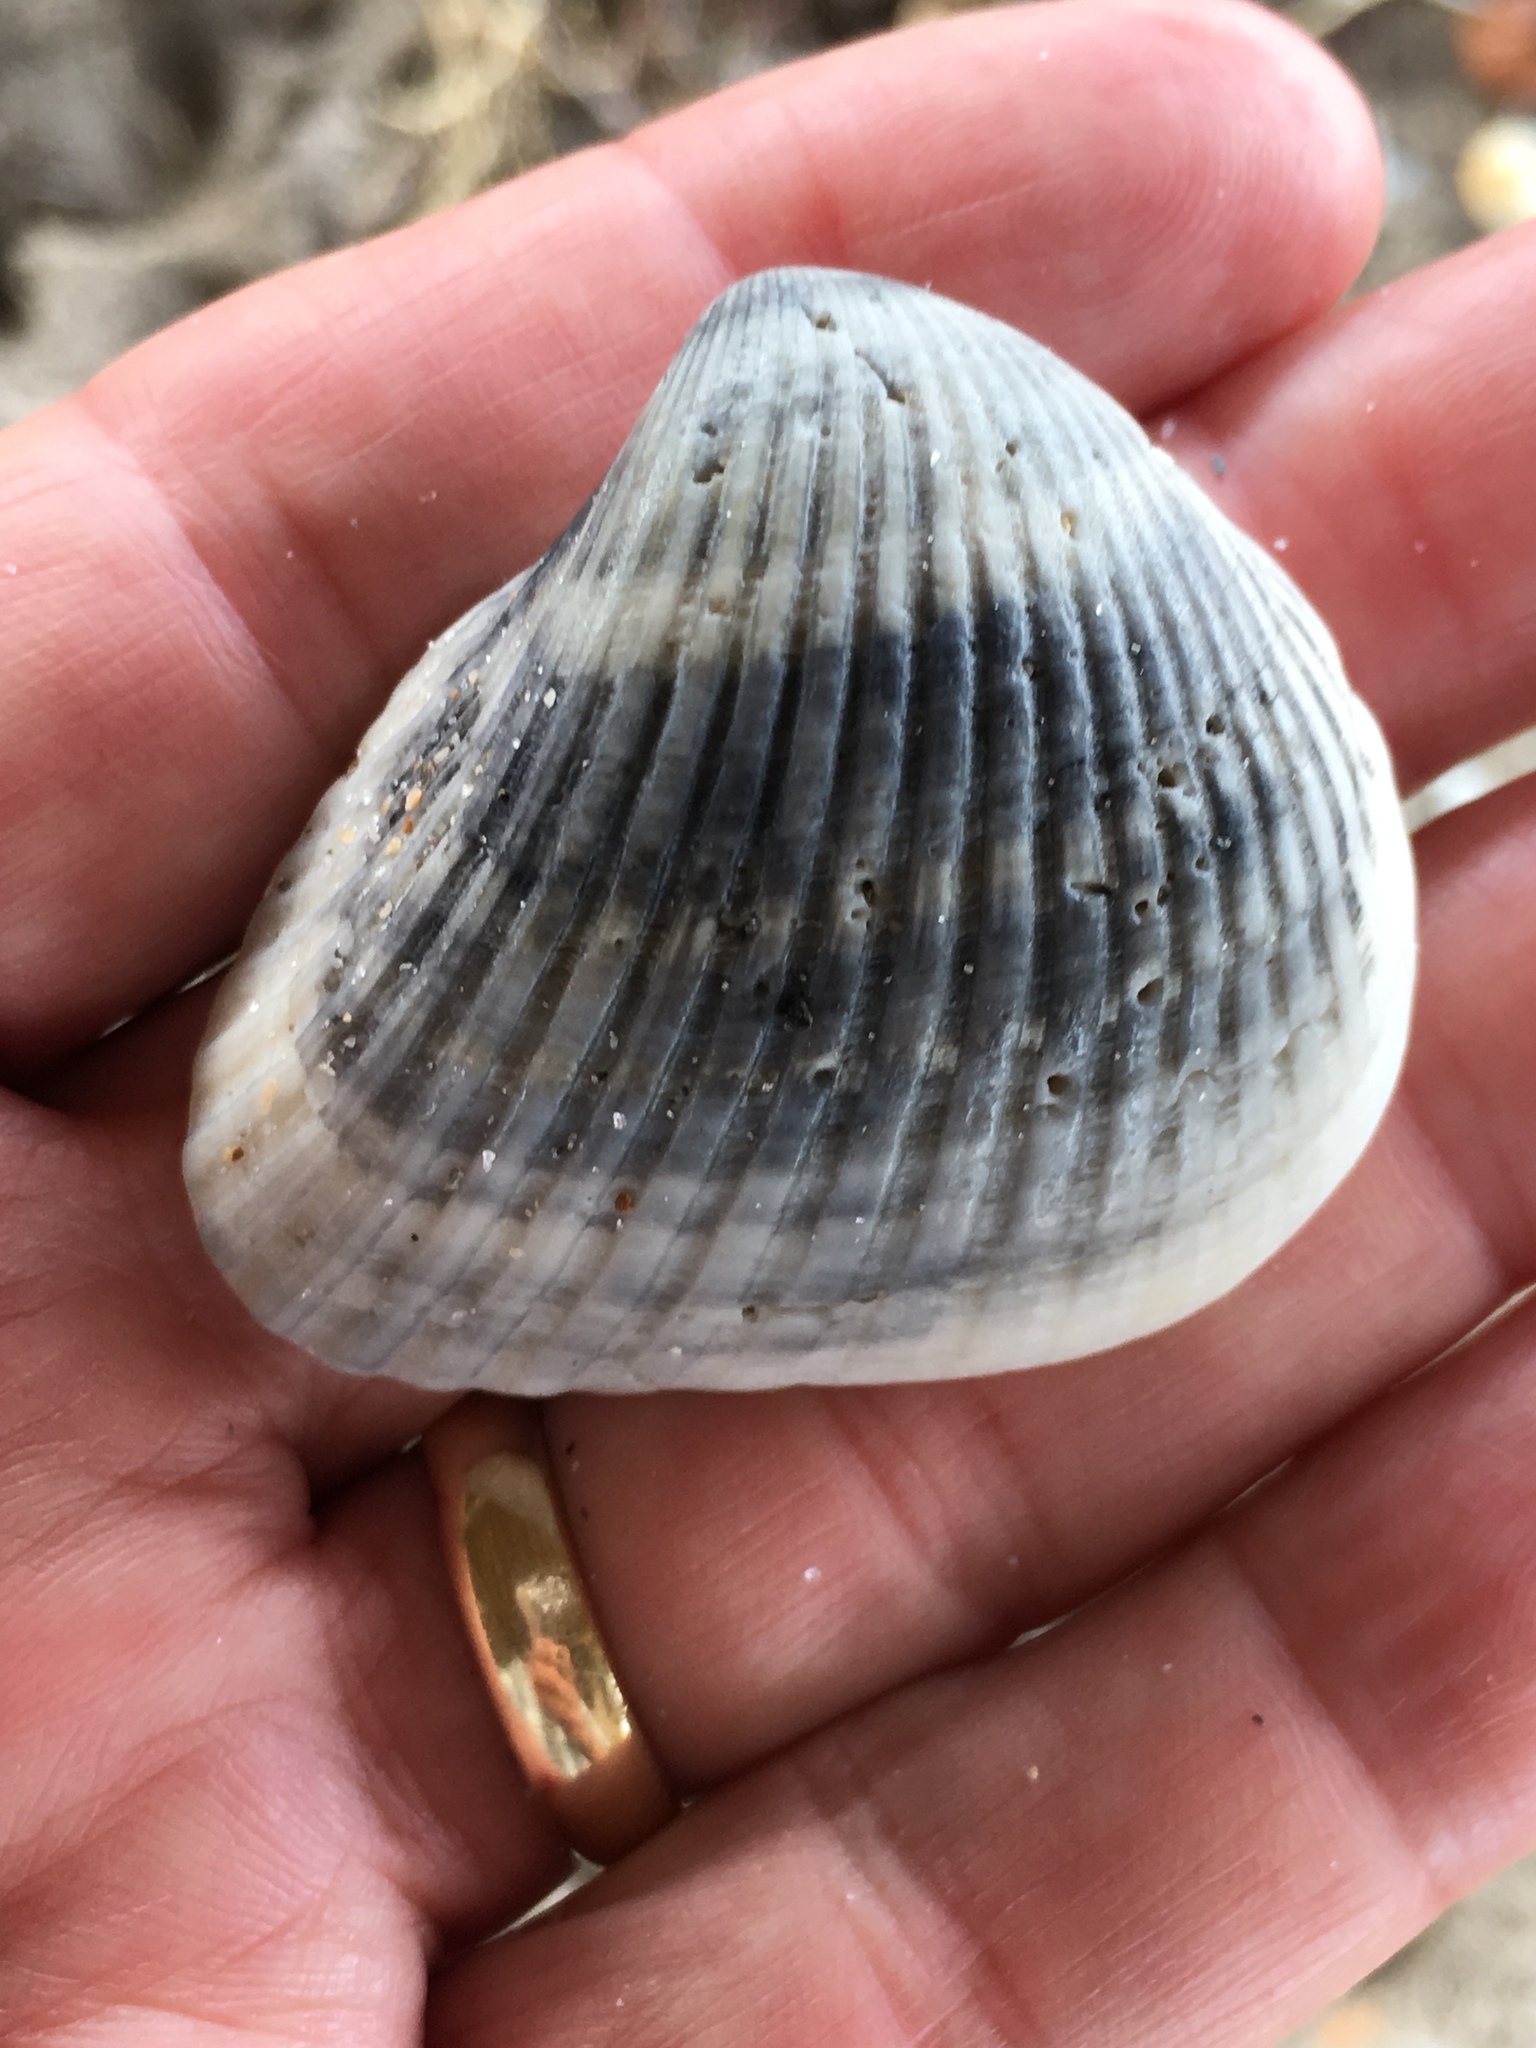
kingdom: Animalia
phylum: Mollusca
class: Bivalvia
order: Arcida
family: Noetiidae
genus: Noetia
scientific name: Noetia ponderosa
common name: Ponderous ark
